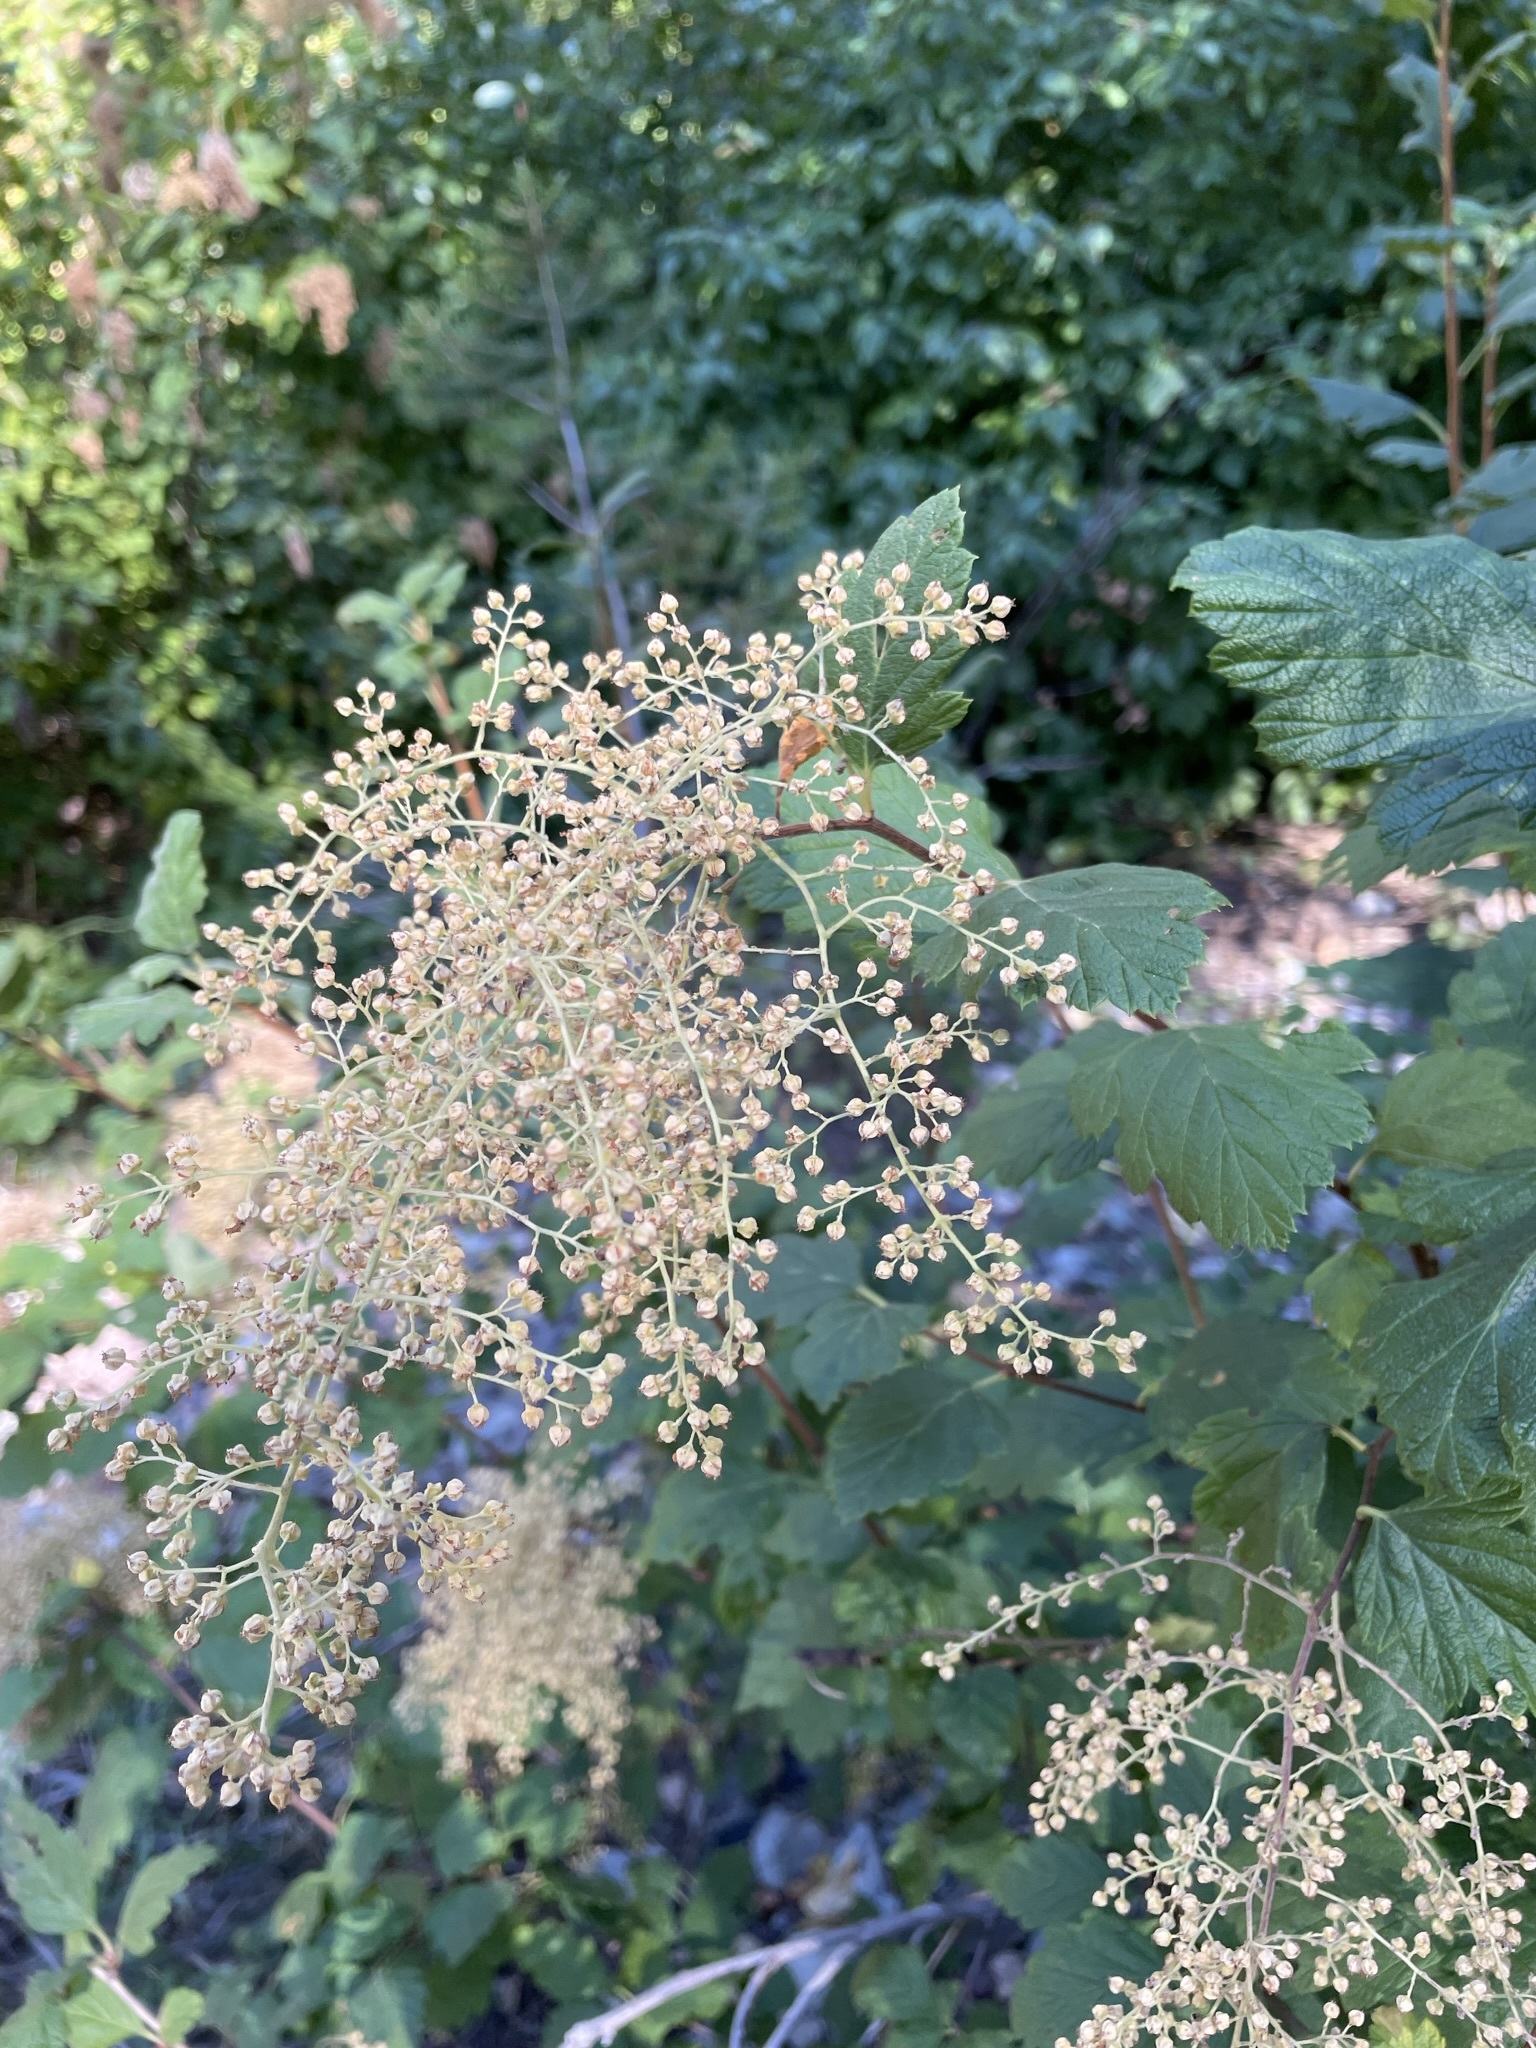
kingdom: Plantae
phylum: Tracheophyta
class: Magnoliopsida
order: Rosales
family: Rosaceae
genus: Holodiscus
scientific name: Holodiscus discolor
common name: Oceanspray
